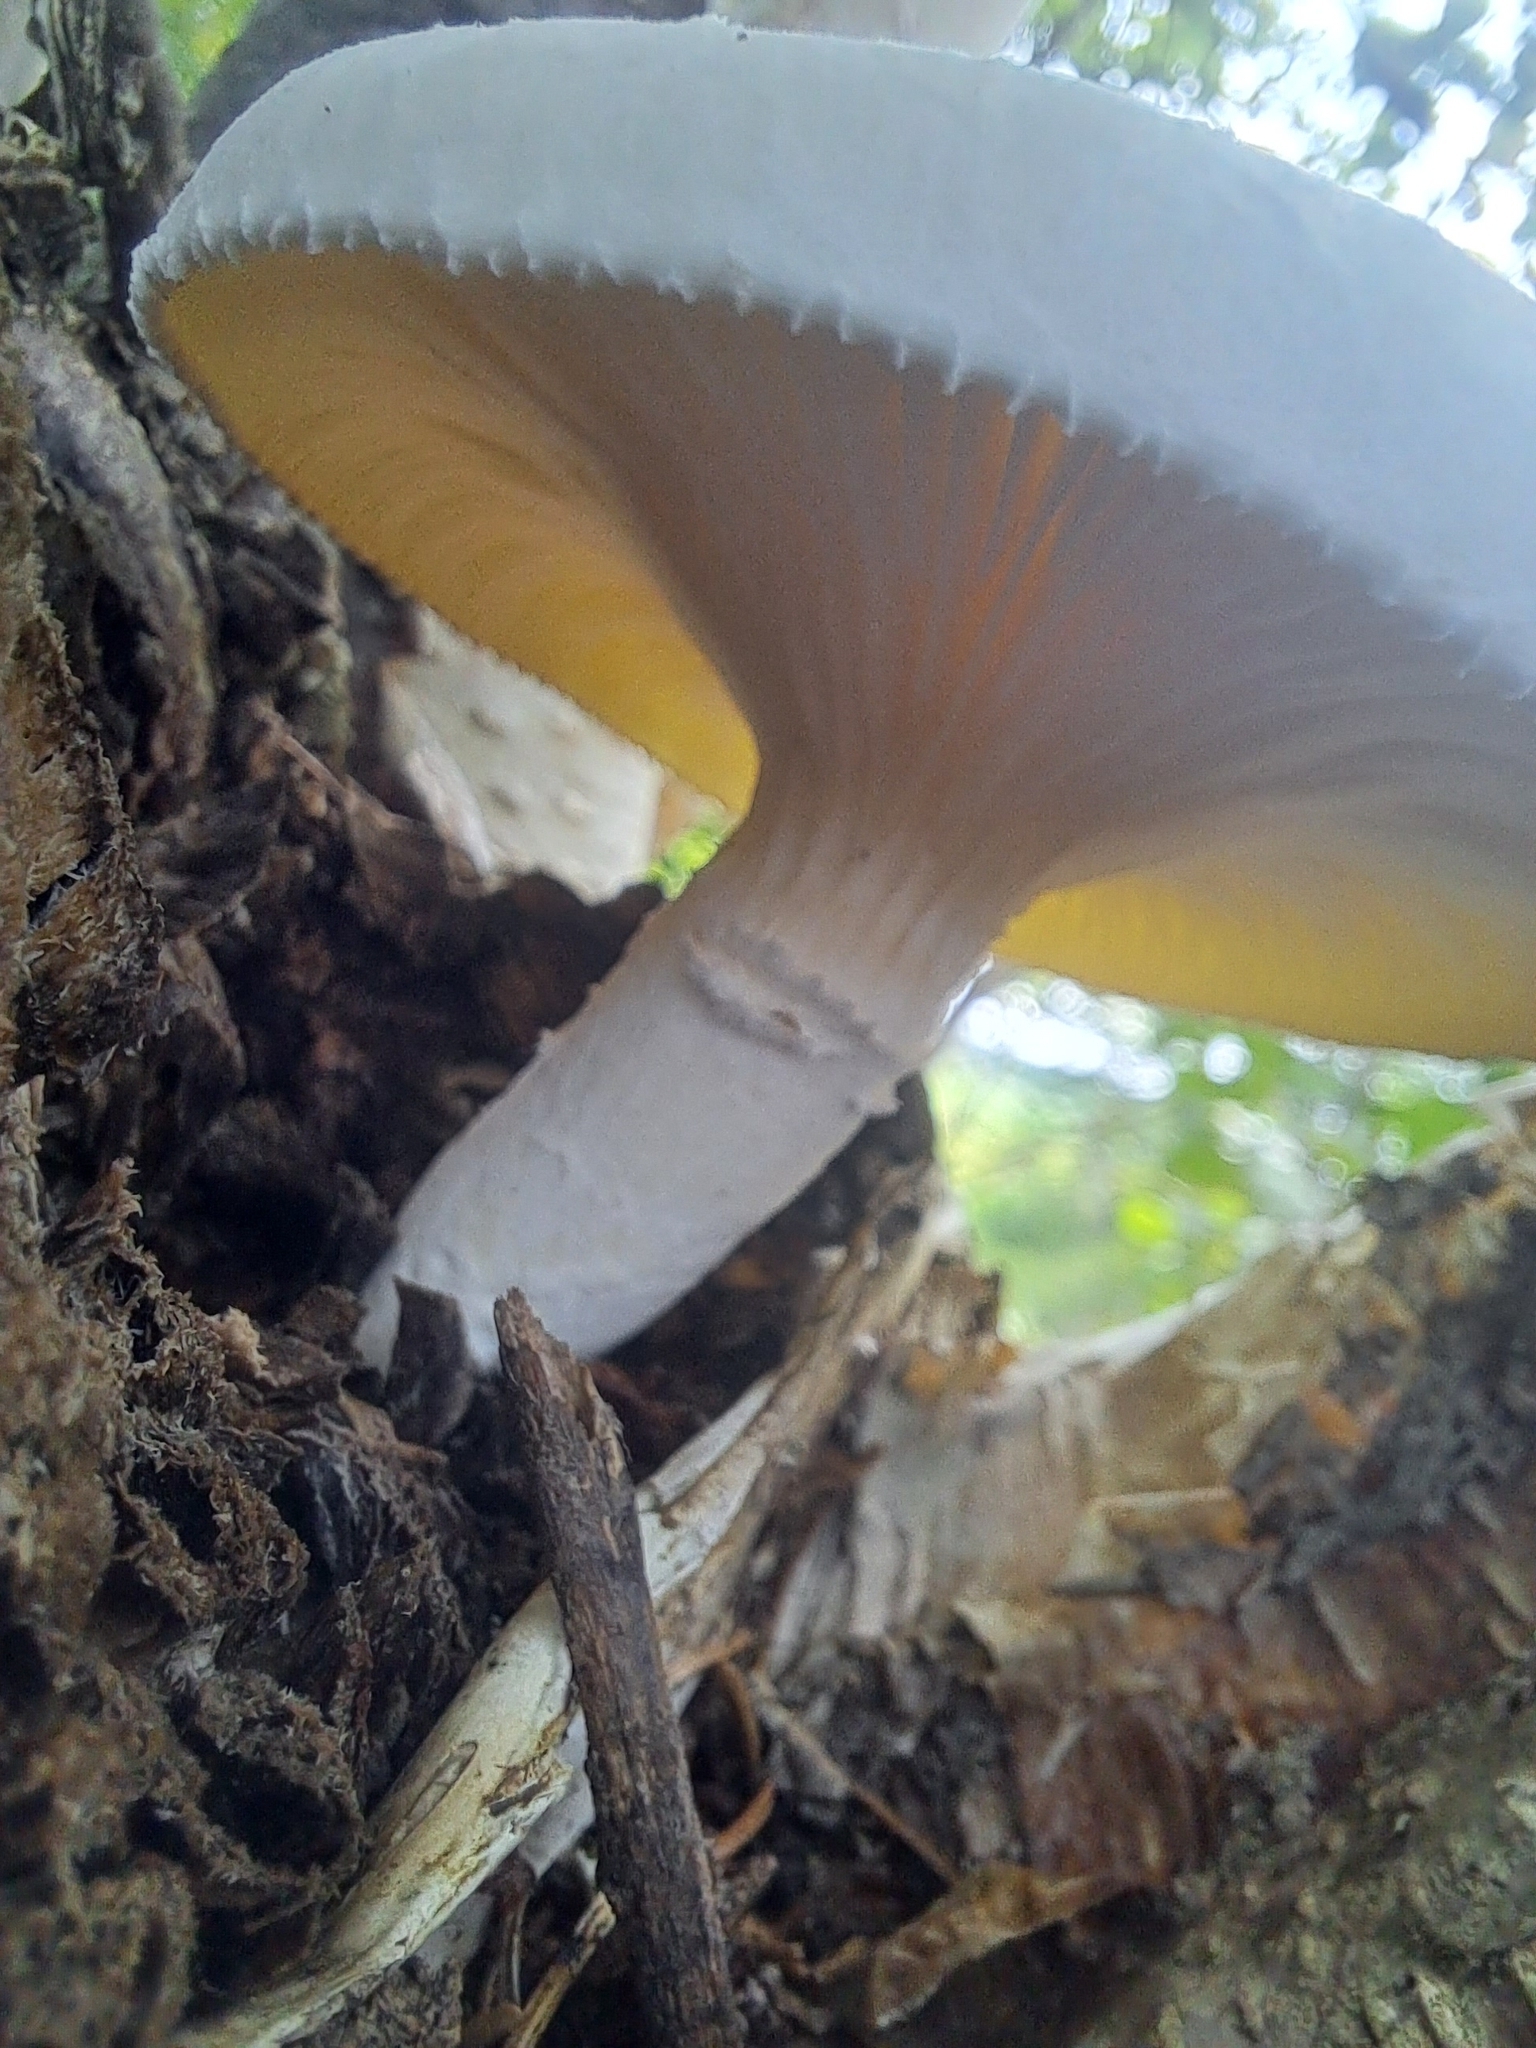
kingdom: Fungi
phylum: Basidiomycota
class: Agaricomycetes
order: Polyporales
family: Polyporaceae
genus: Lentinus
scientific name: Lentinus levis
